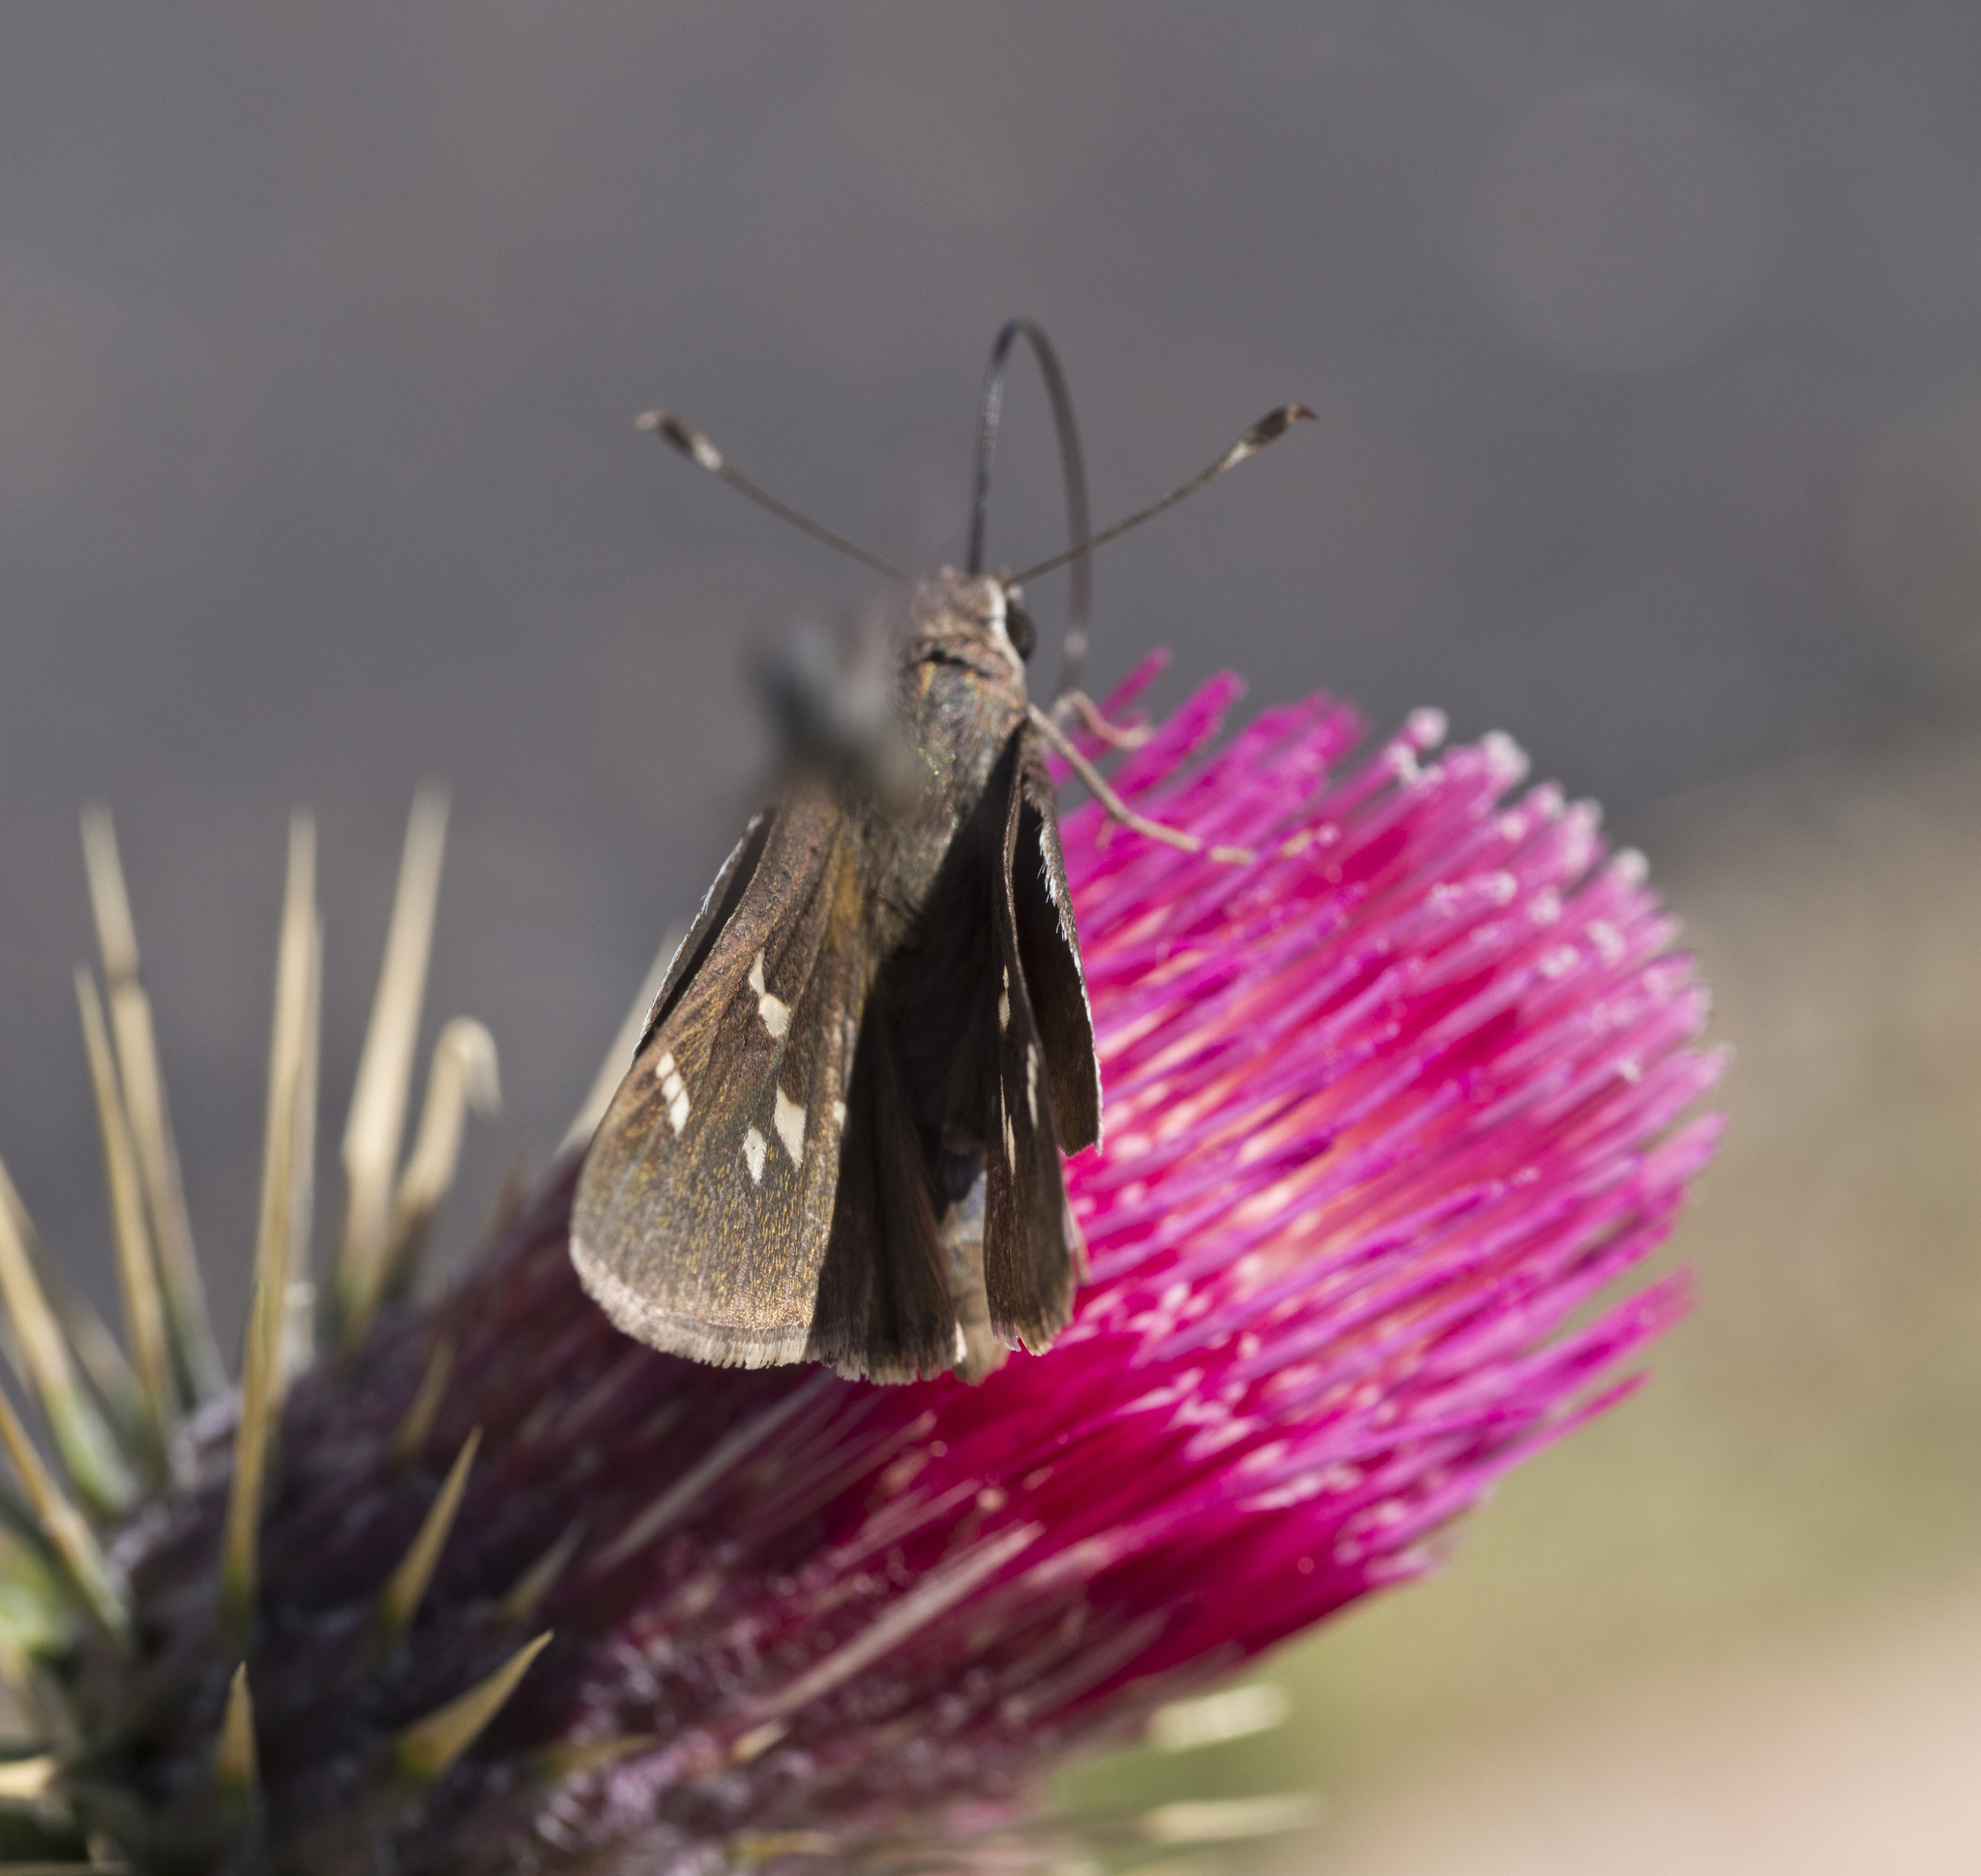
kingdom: Animalia
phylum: Arthropoda
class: Insecta
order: Lepidoptera
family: Hesperiidae
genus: Atrytonopsis
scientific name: Atrytonopsis vierecki
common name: Viereck's skipper
